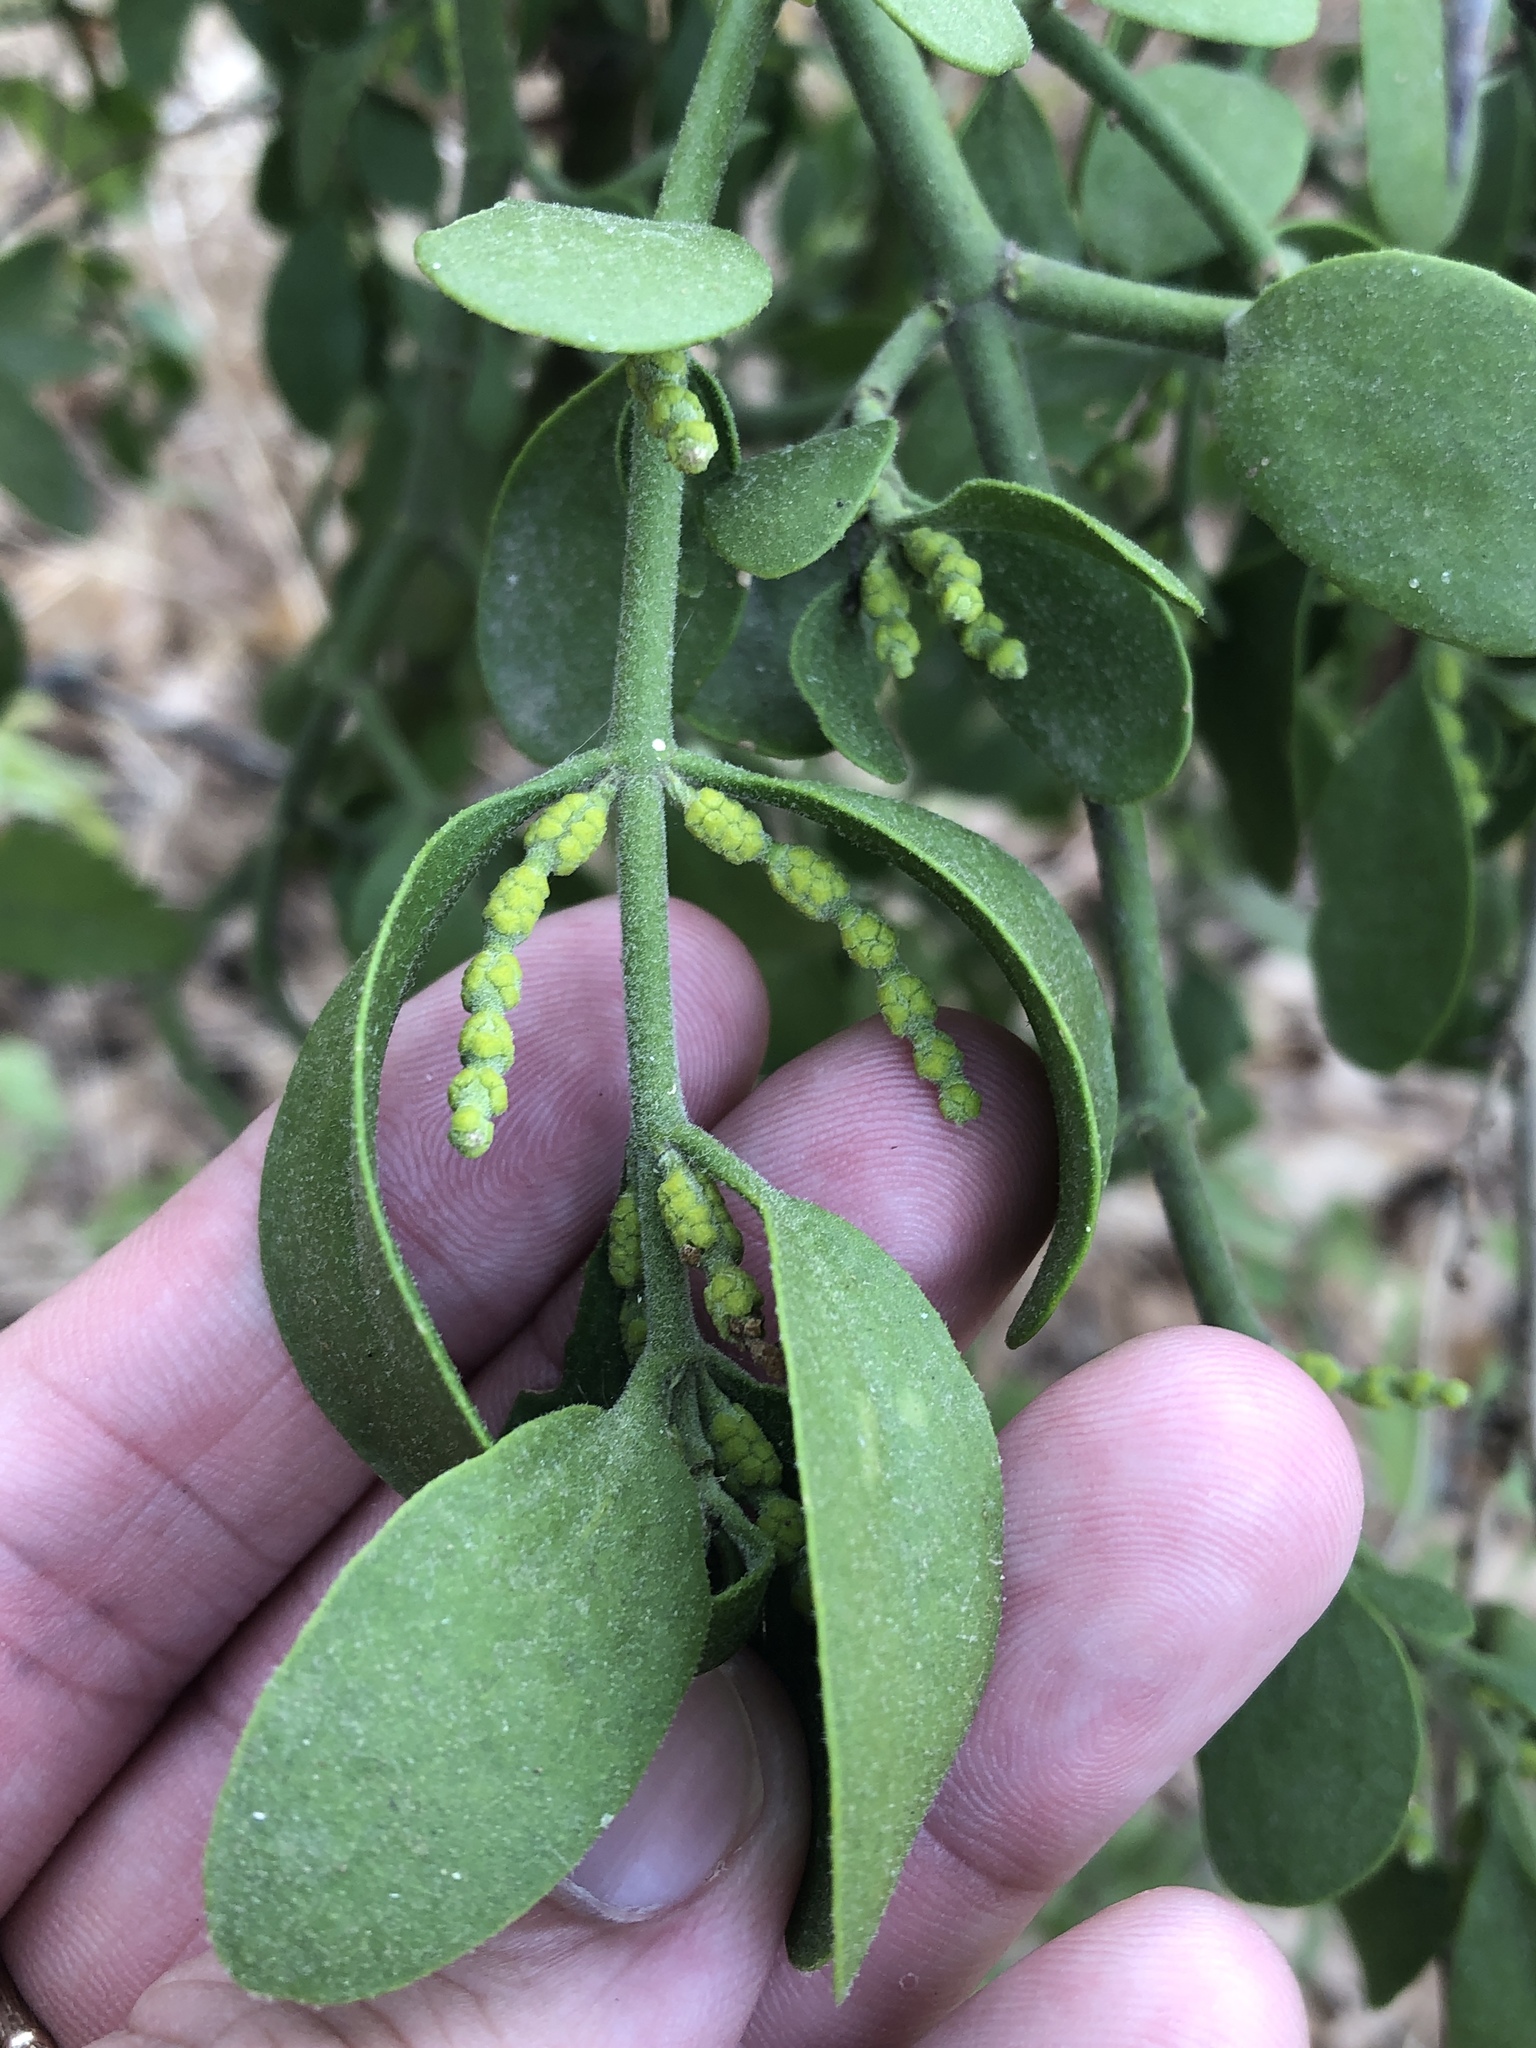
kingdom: Plantae
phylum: Tracheophyta
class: Magnoliopsida
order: Santalales
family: Viscaceae
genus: Phoradendron
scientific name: Phoradendron leucarpum
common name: Pacific mistletoe
